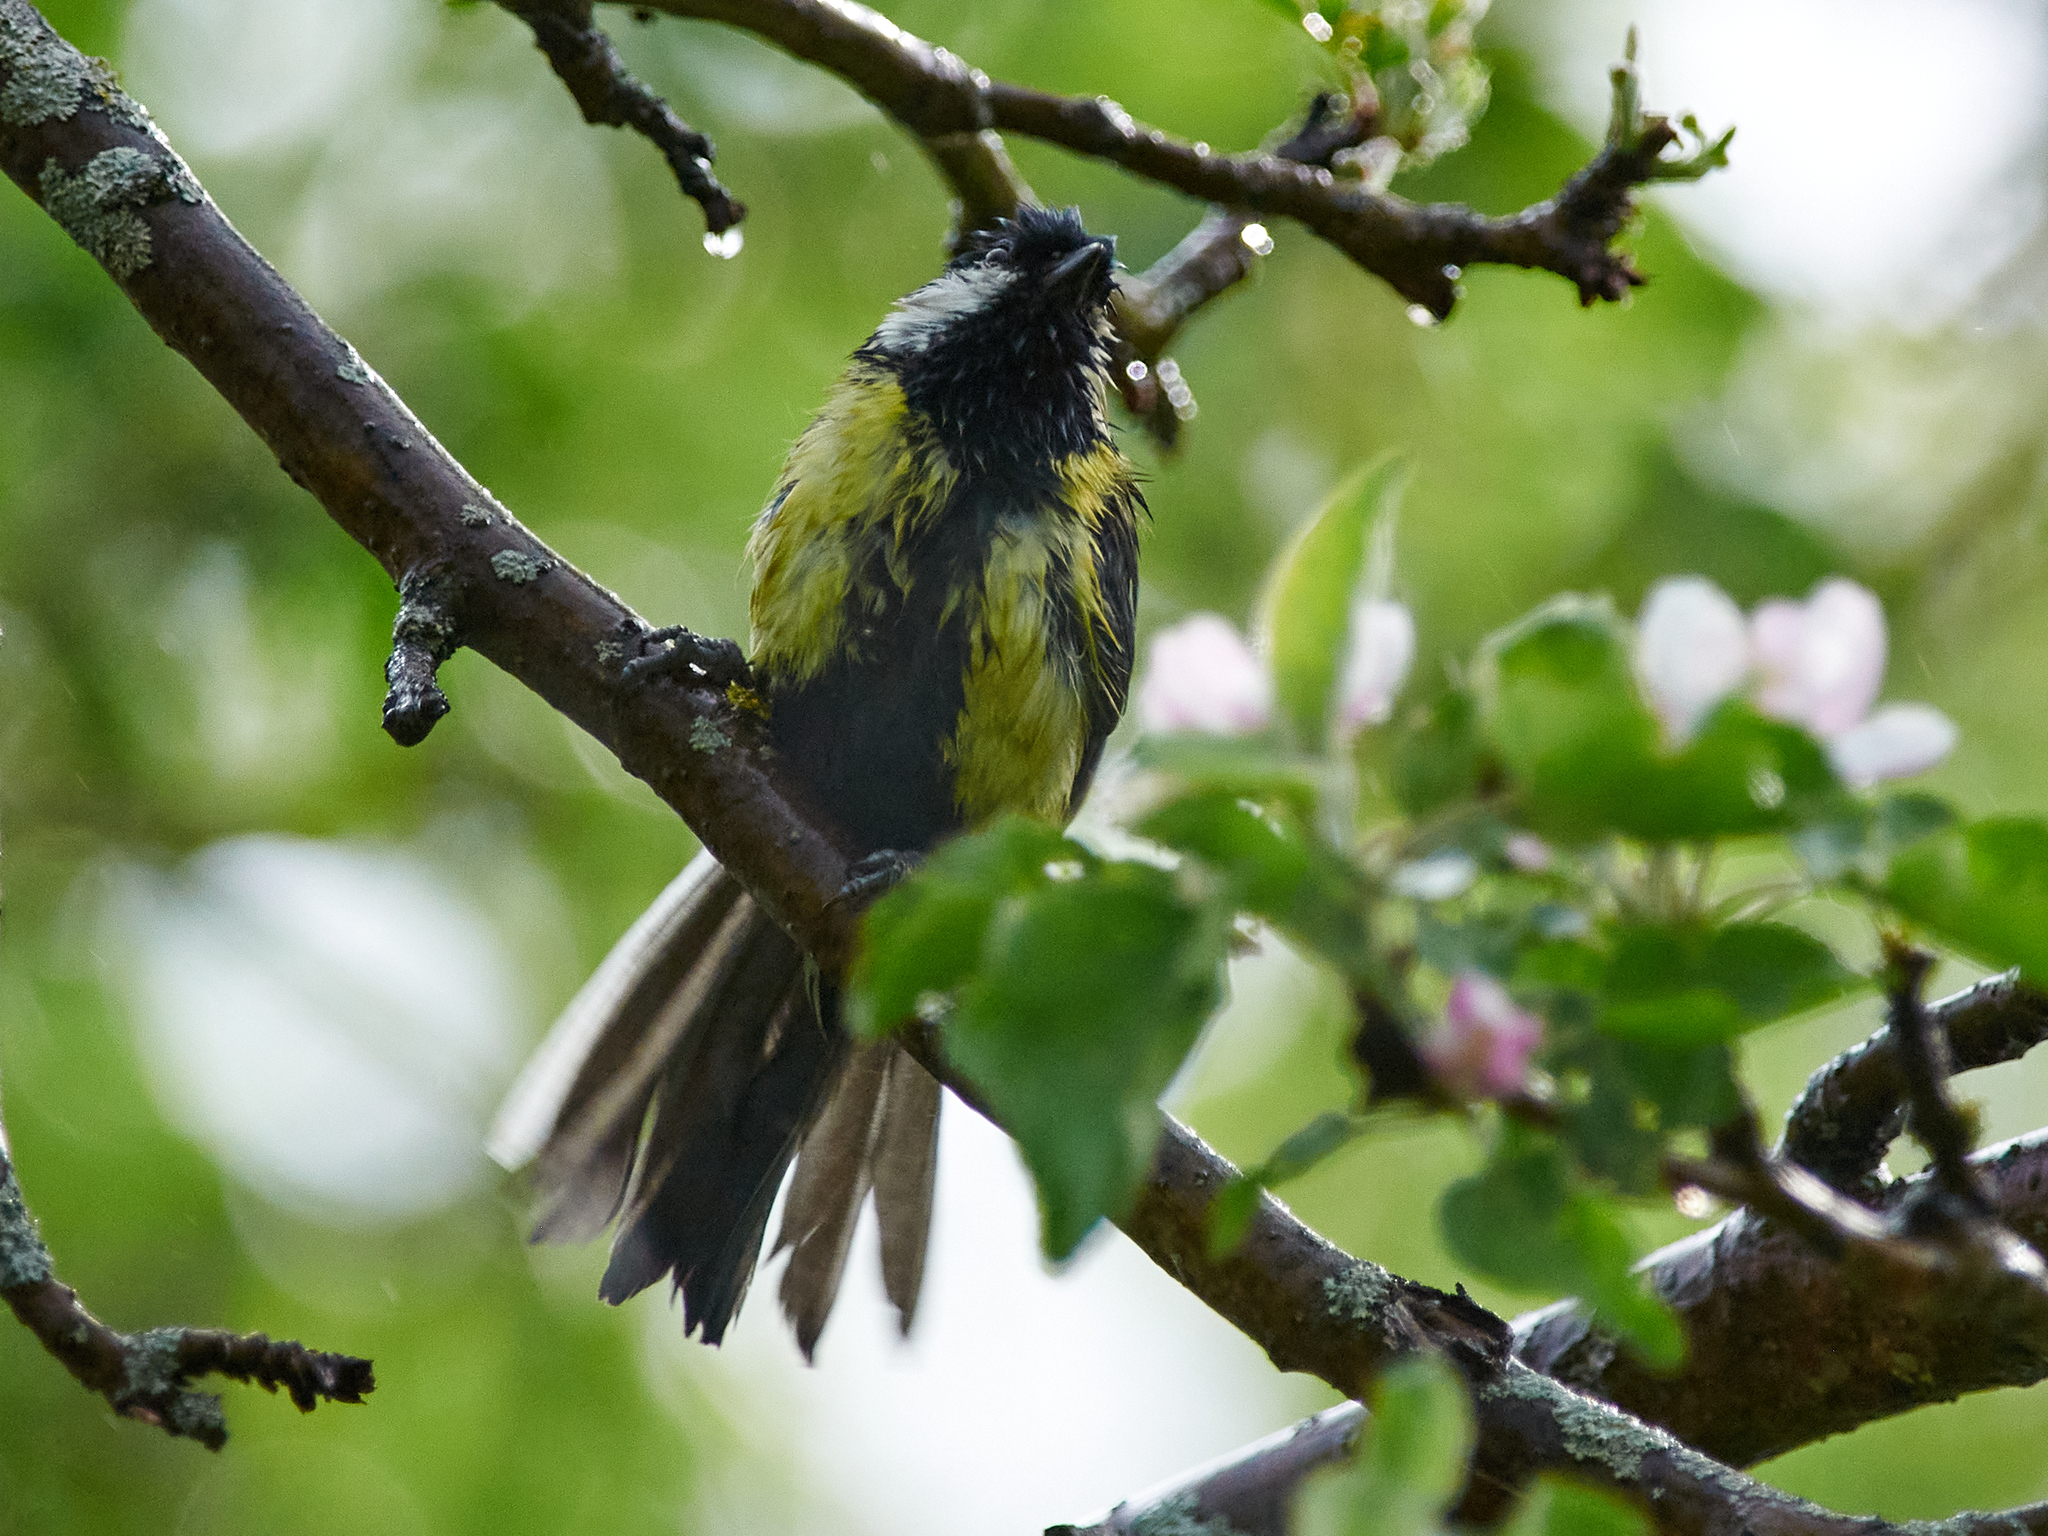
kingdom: Animalia
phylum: Chordata
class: Aves
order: Passeriformes
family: Paridae
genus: Parus
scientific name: Parus major
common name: Great tit
